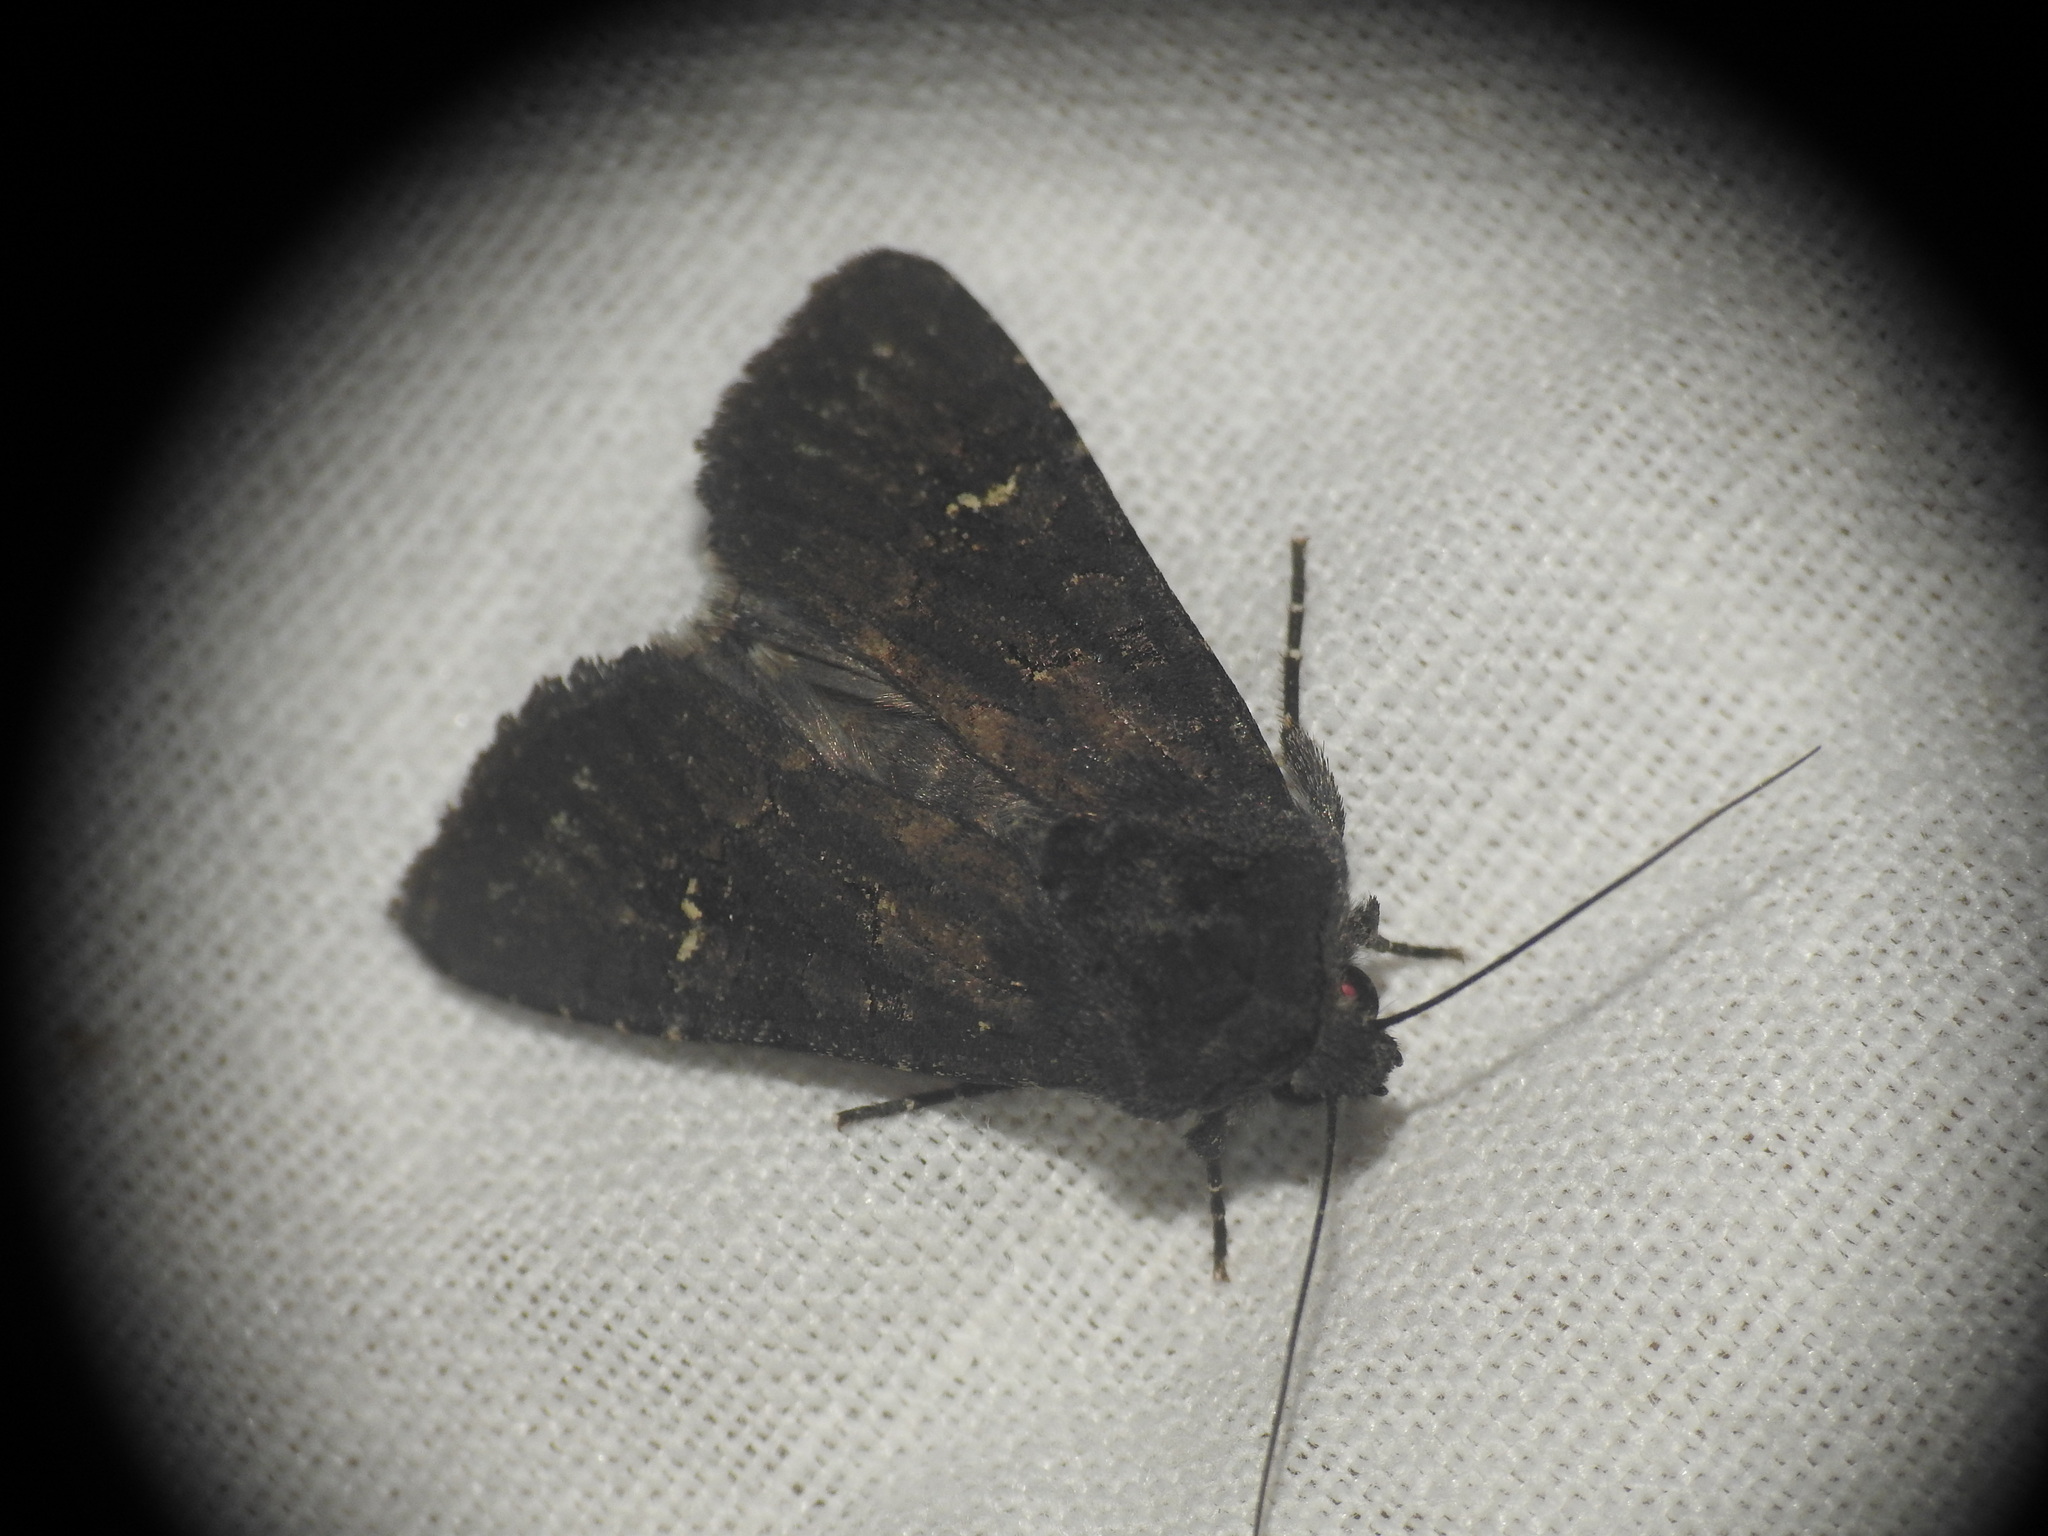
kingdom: Animalia
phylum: Arthropoda
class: Insecta
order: Lepidoptera
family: Noctuidae
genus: Aporophyla
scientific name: Aporophyla nigra
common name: Black rustic
